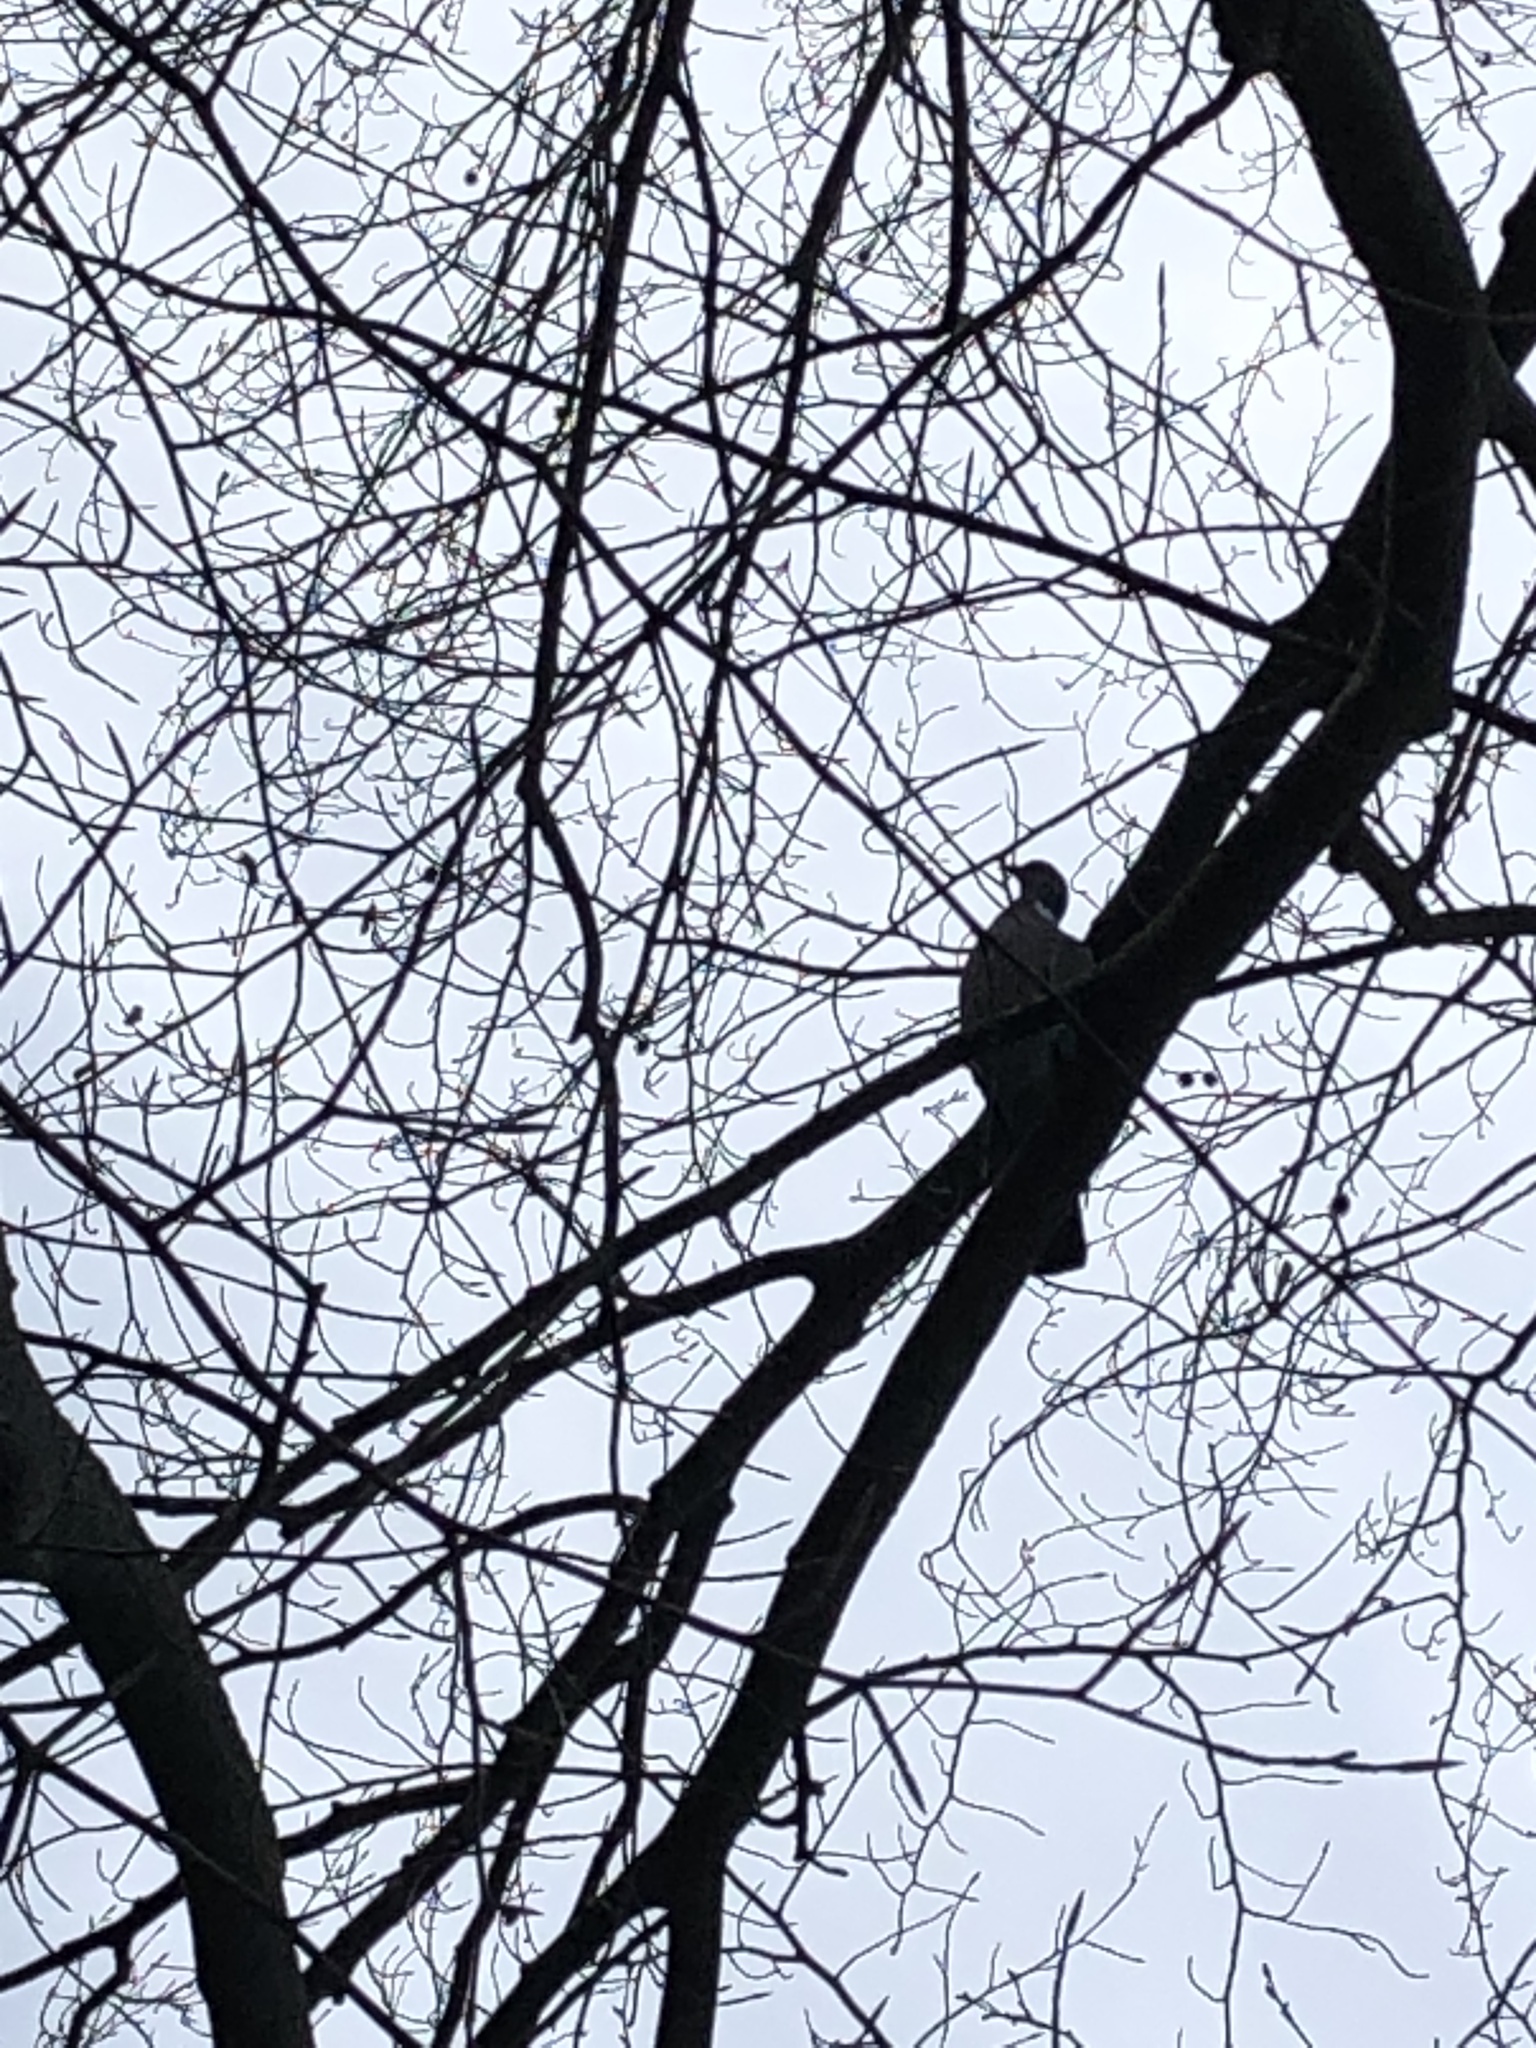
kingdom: Animalia
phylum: Chordata
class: Aves
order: Columbiformes
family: Columbidae
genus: Columba
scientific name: Columba palumbus
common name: Common wood pigeon
